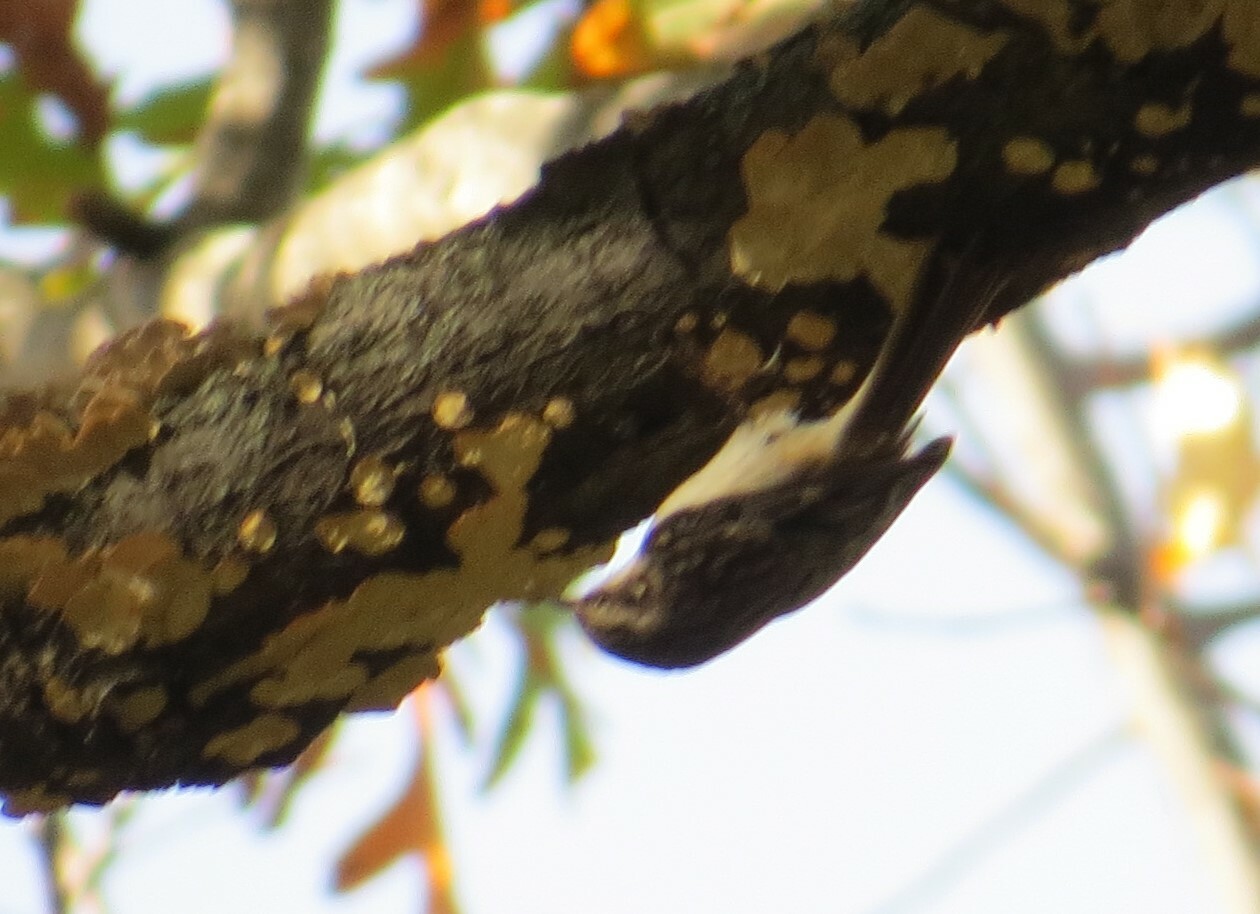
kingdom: Animalia
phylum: Chordata
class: Aves
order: Passeriformes
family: Certhiidae
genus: Certhia
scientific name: Certhia americana
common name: Brown creeper
